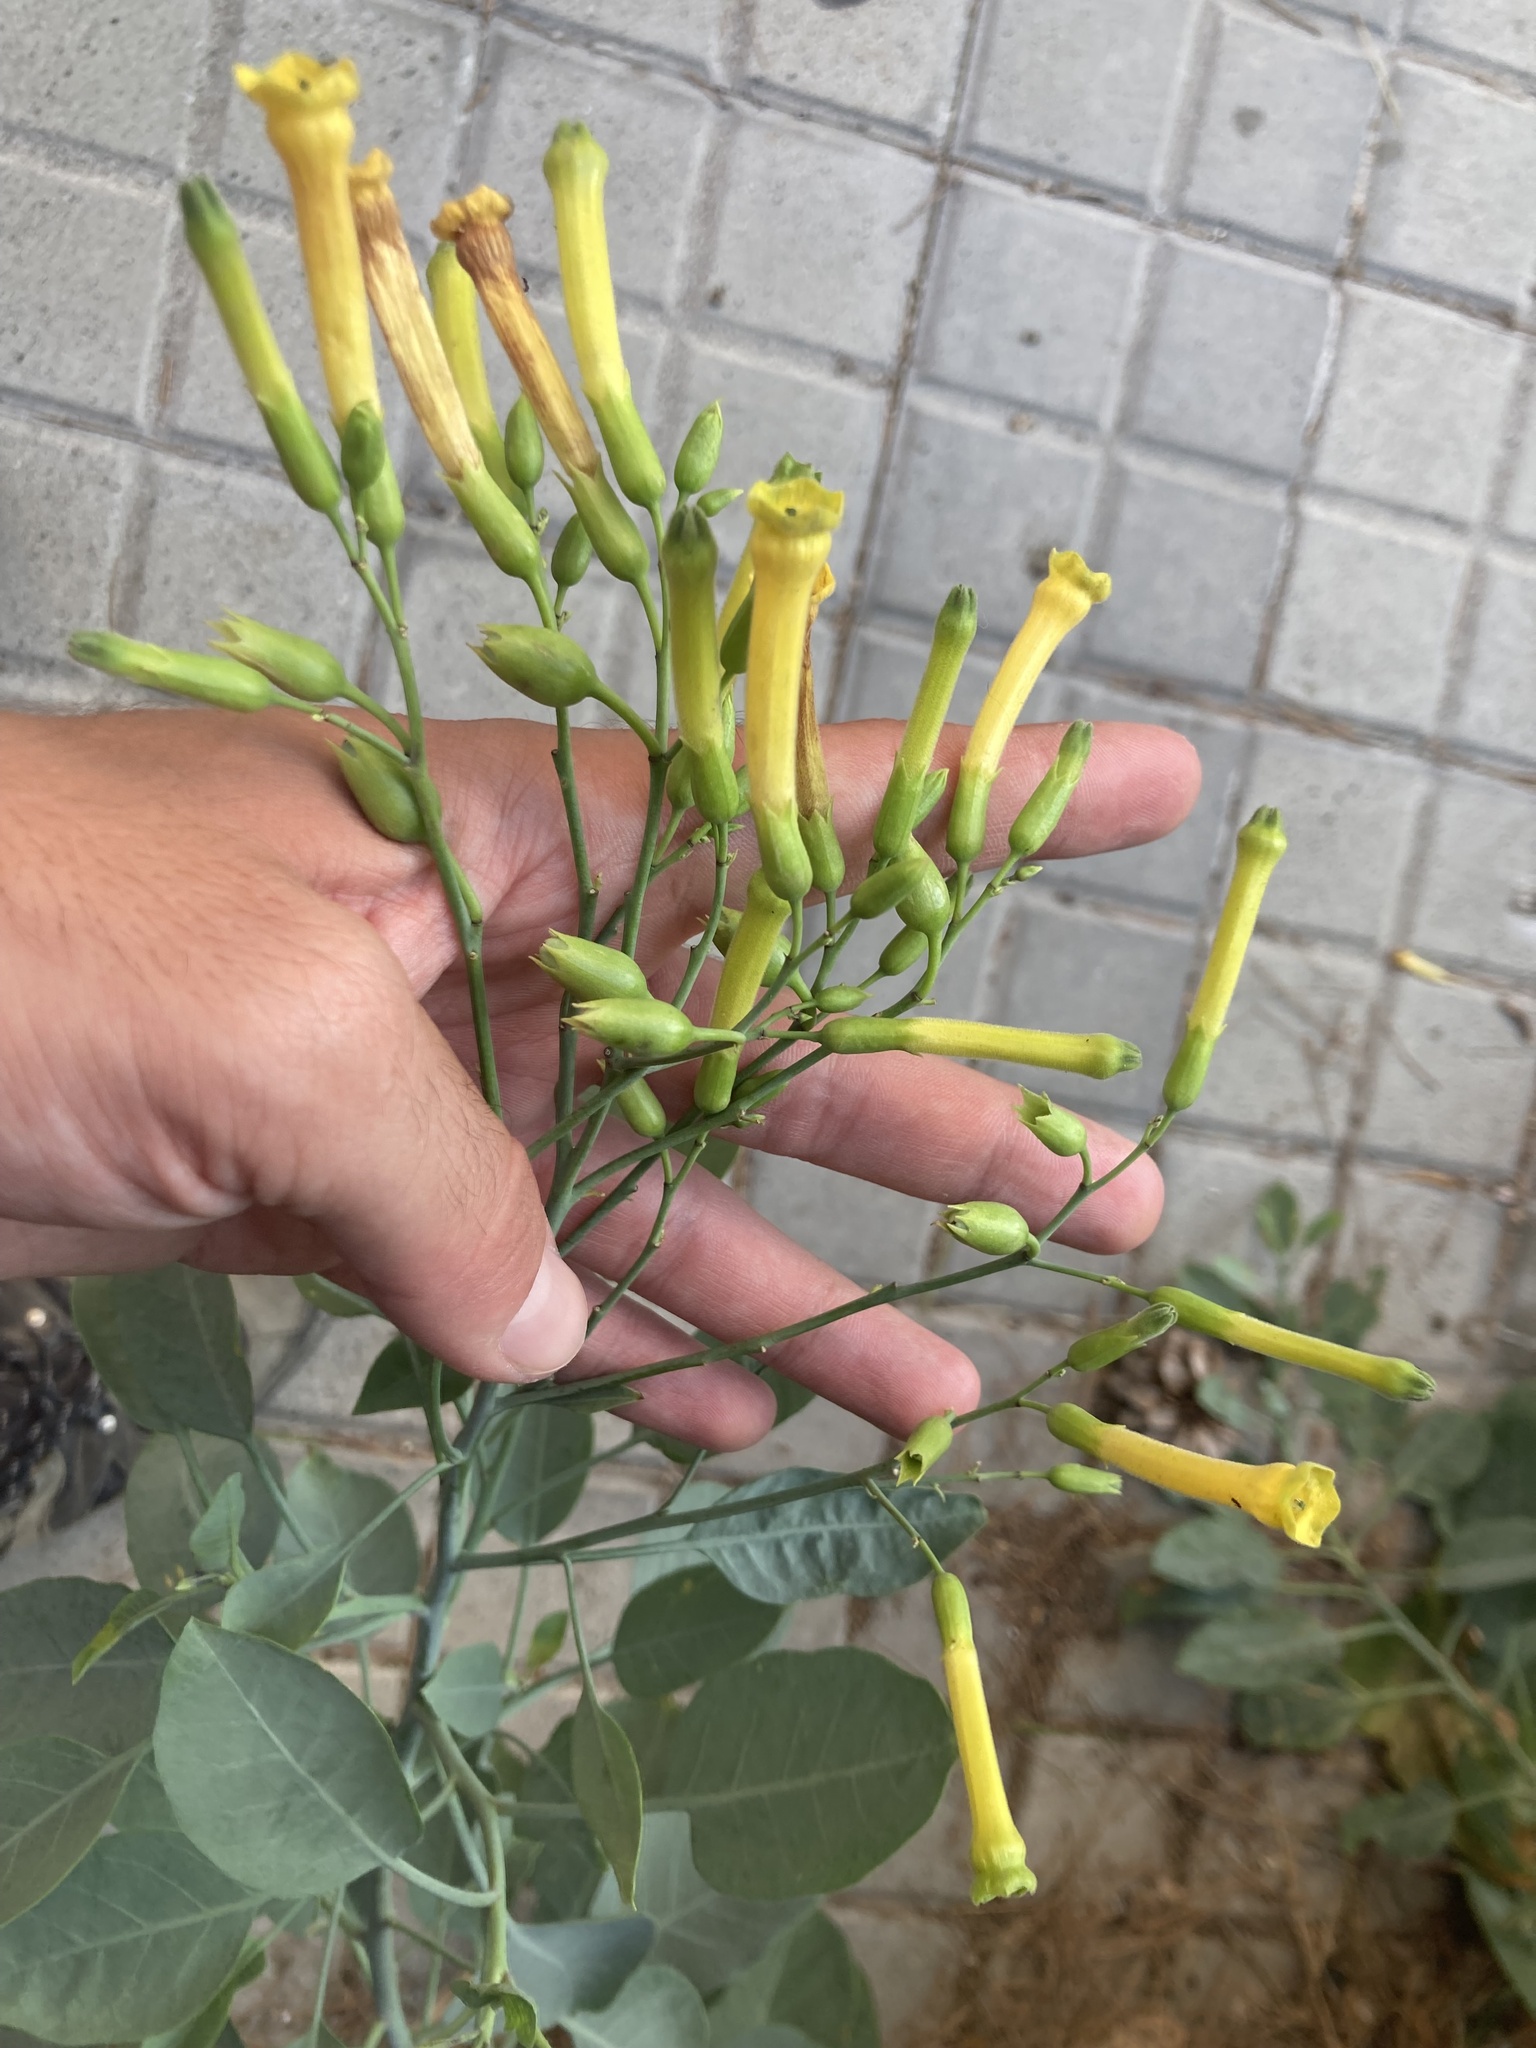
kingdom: Plantae
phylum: Tracheophyta
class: Magnoliopsida
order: Solanales
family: Solanaceae
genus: Nicotiana
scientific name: Nicotiana glauca
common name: Tree tobacco
